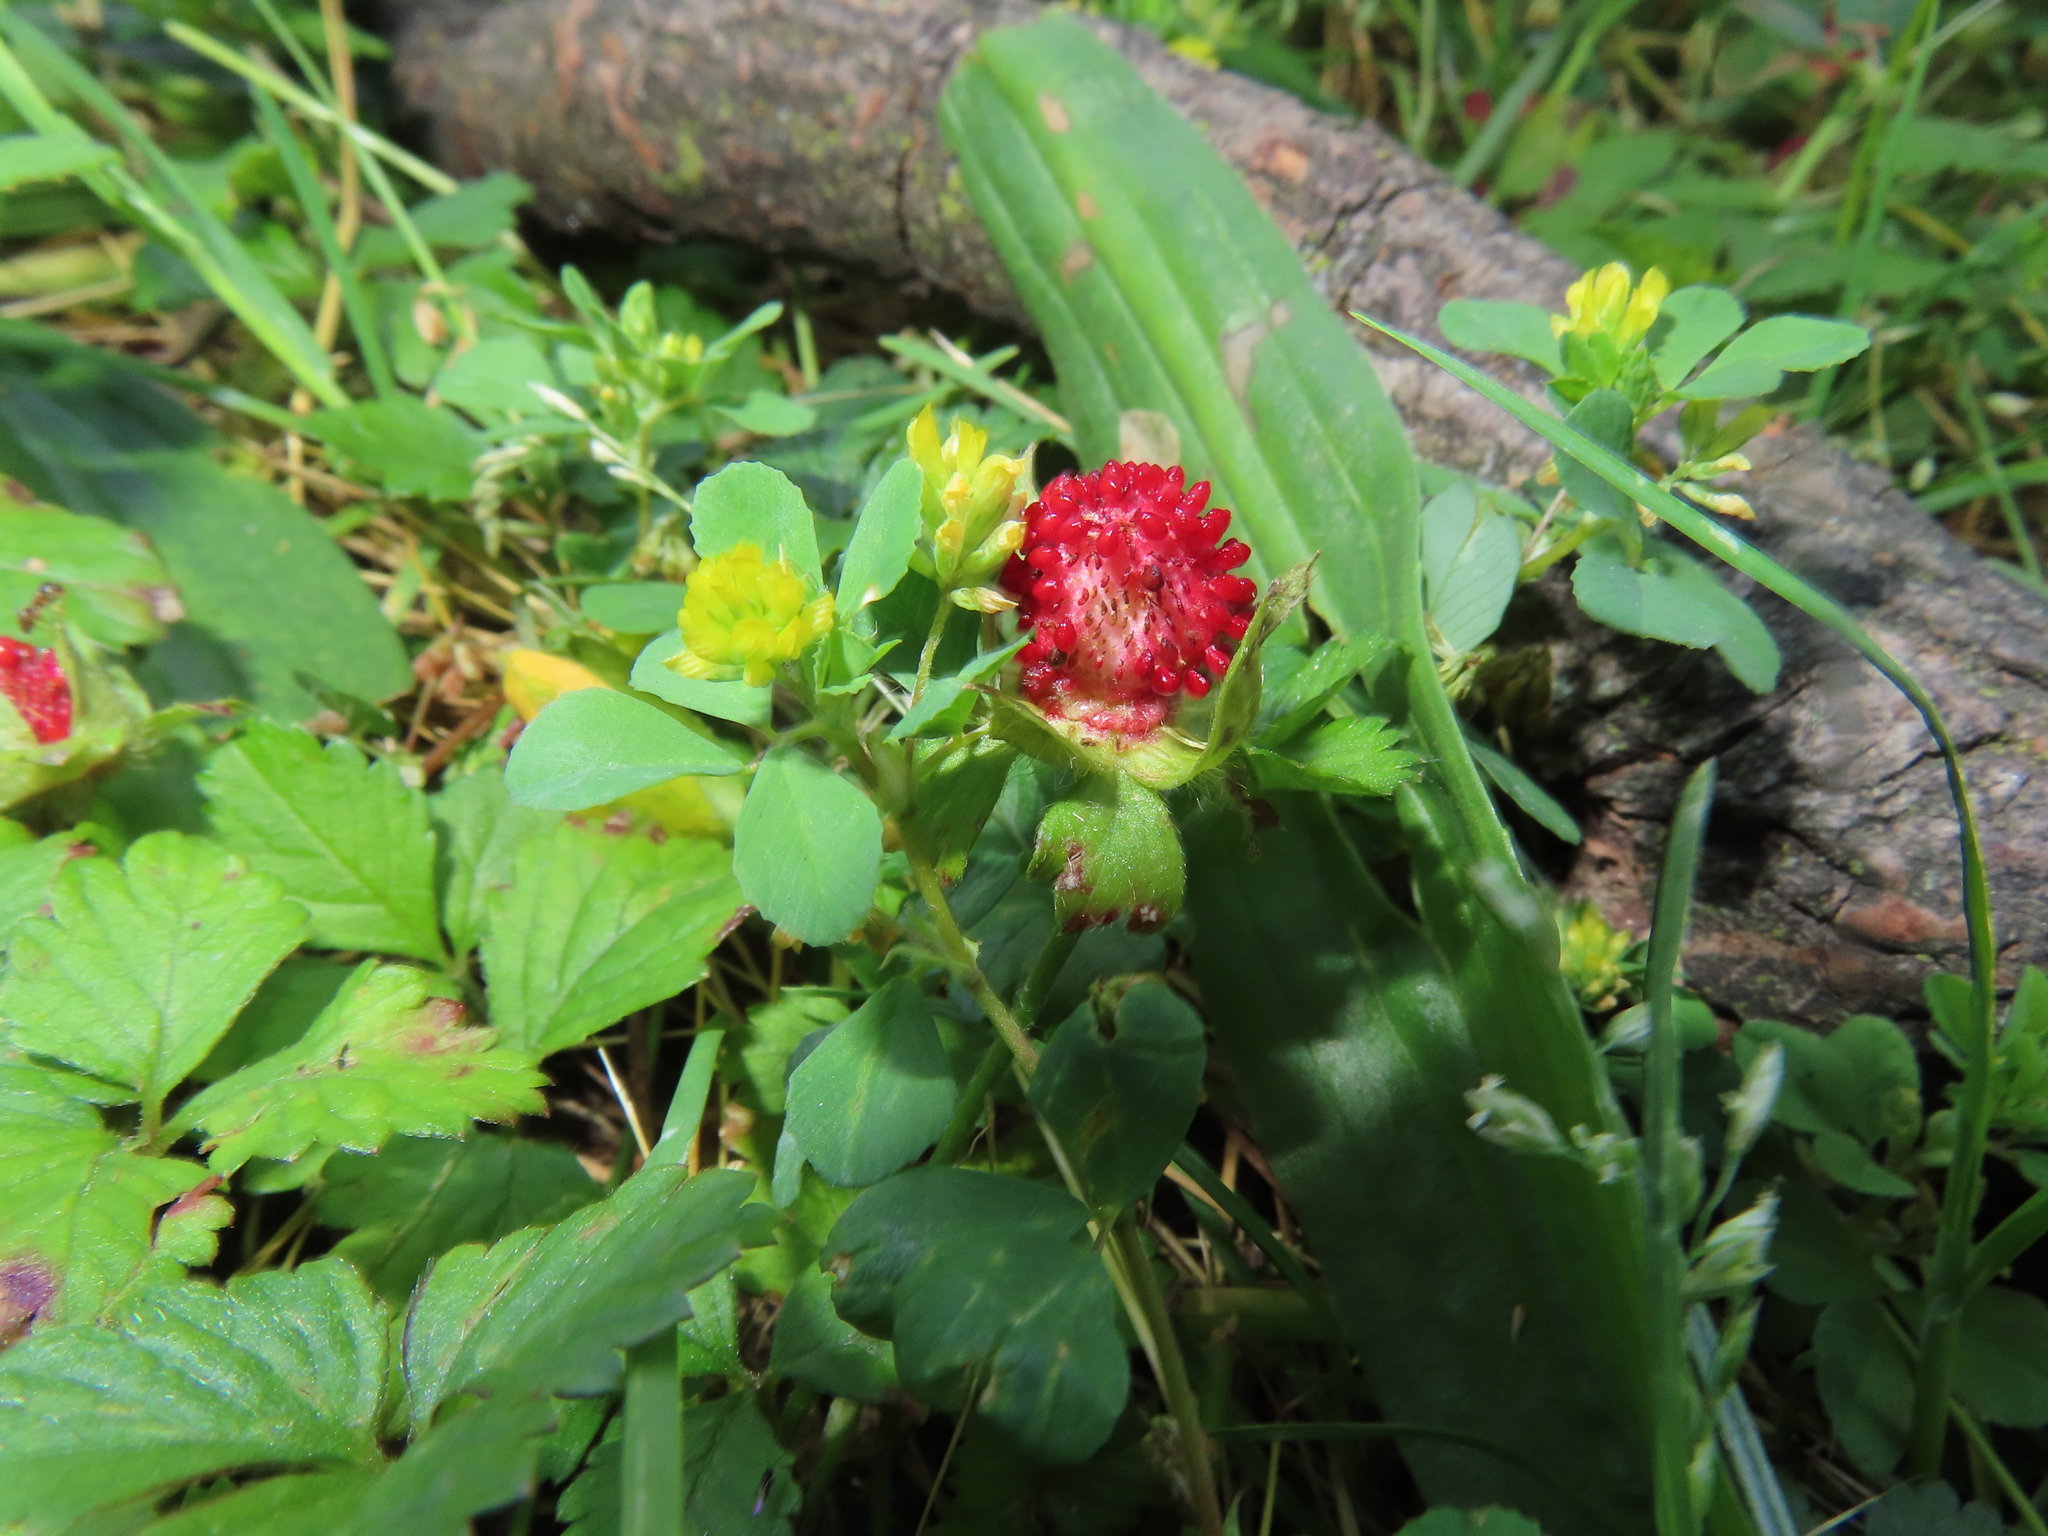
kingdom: Plantae
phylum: Tracheophyta
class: Magnoliopsida
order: Rosales
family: Rosaceae
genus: Potentilla
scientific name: Potentilla indica
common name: Yellow-flowered strawberry
